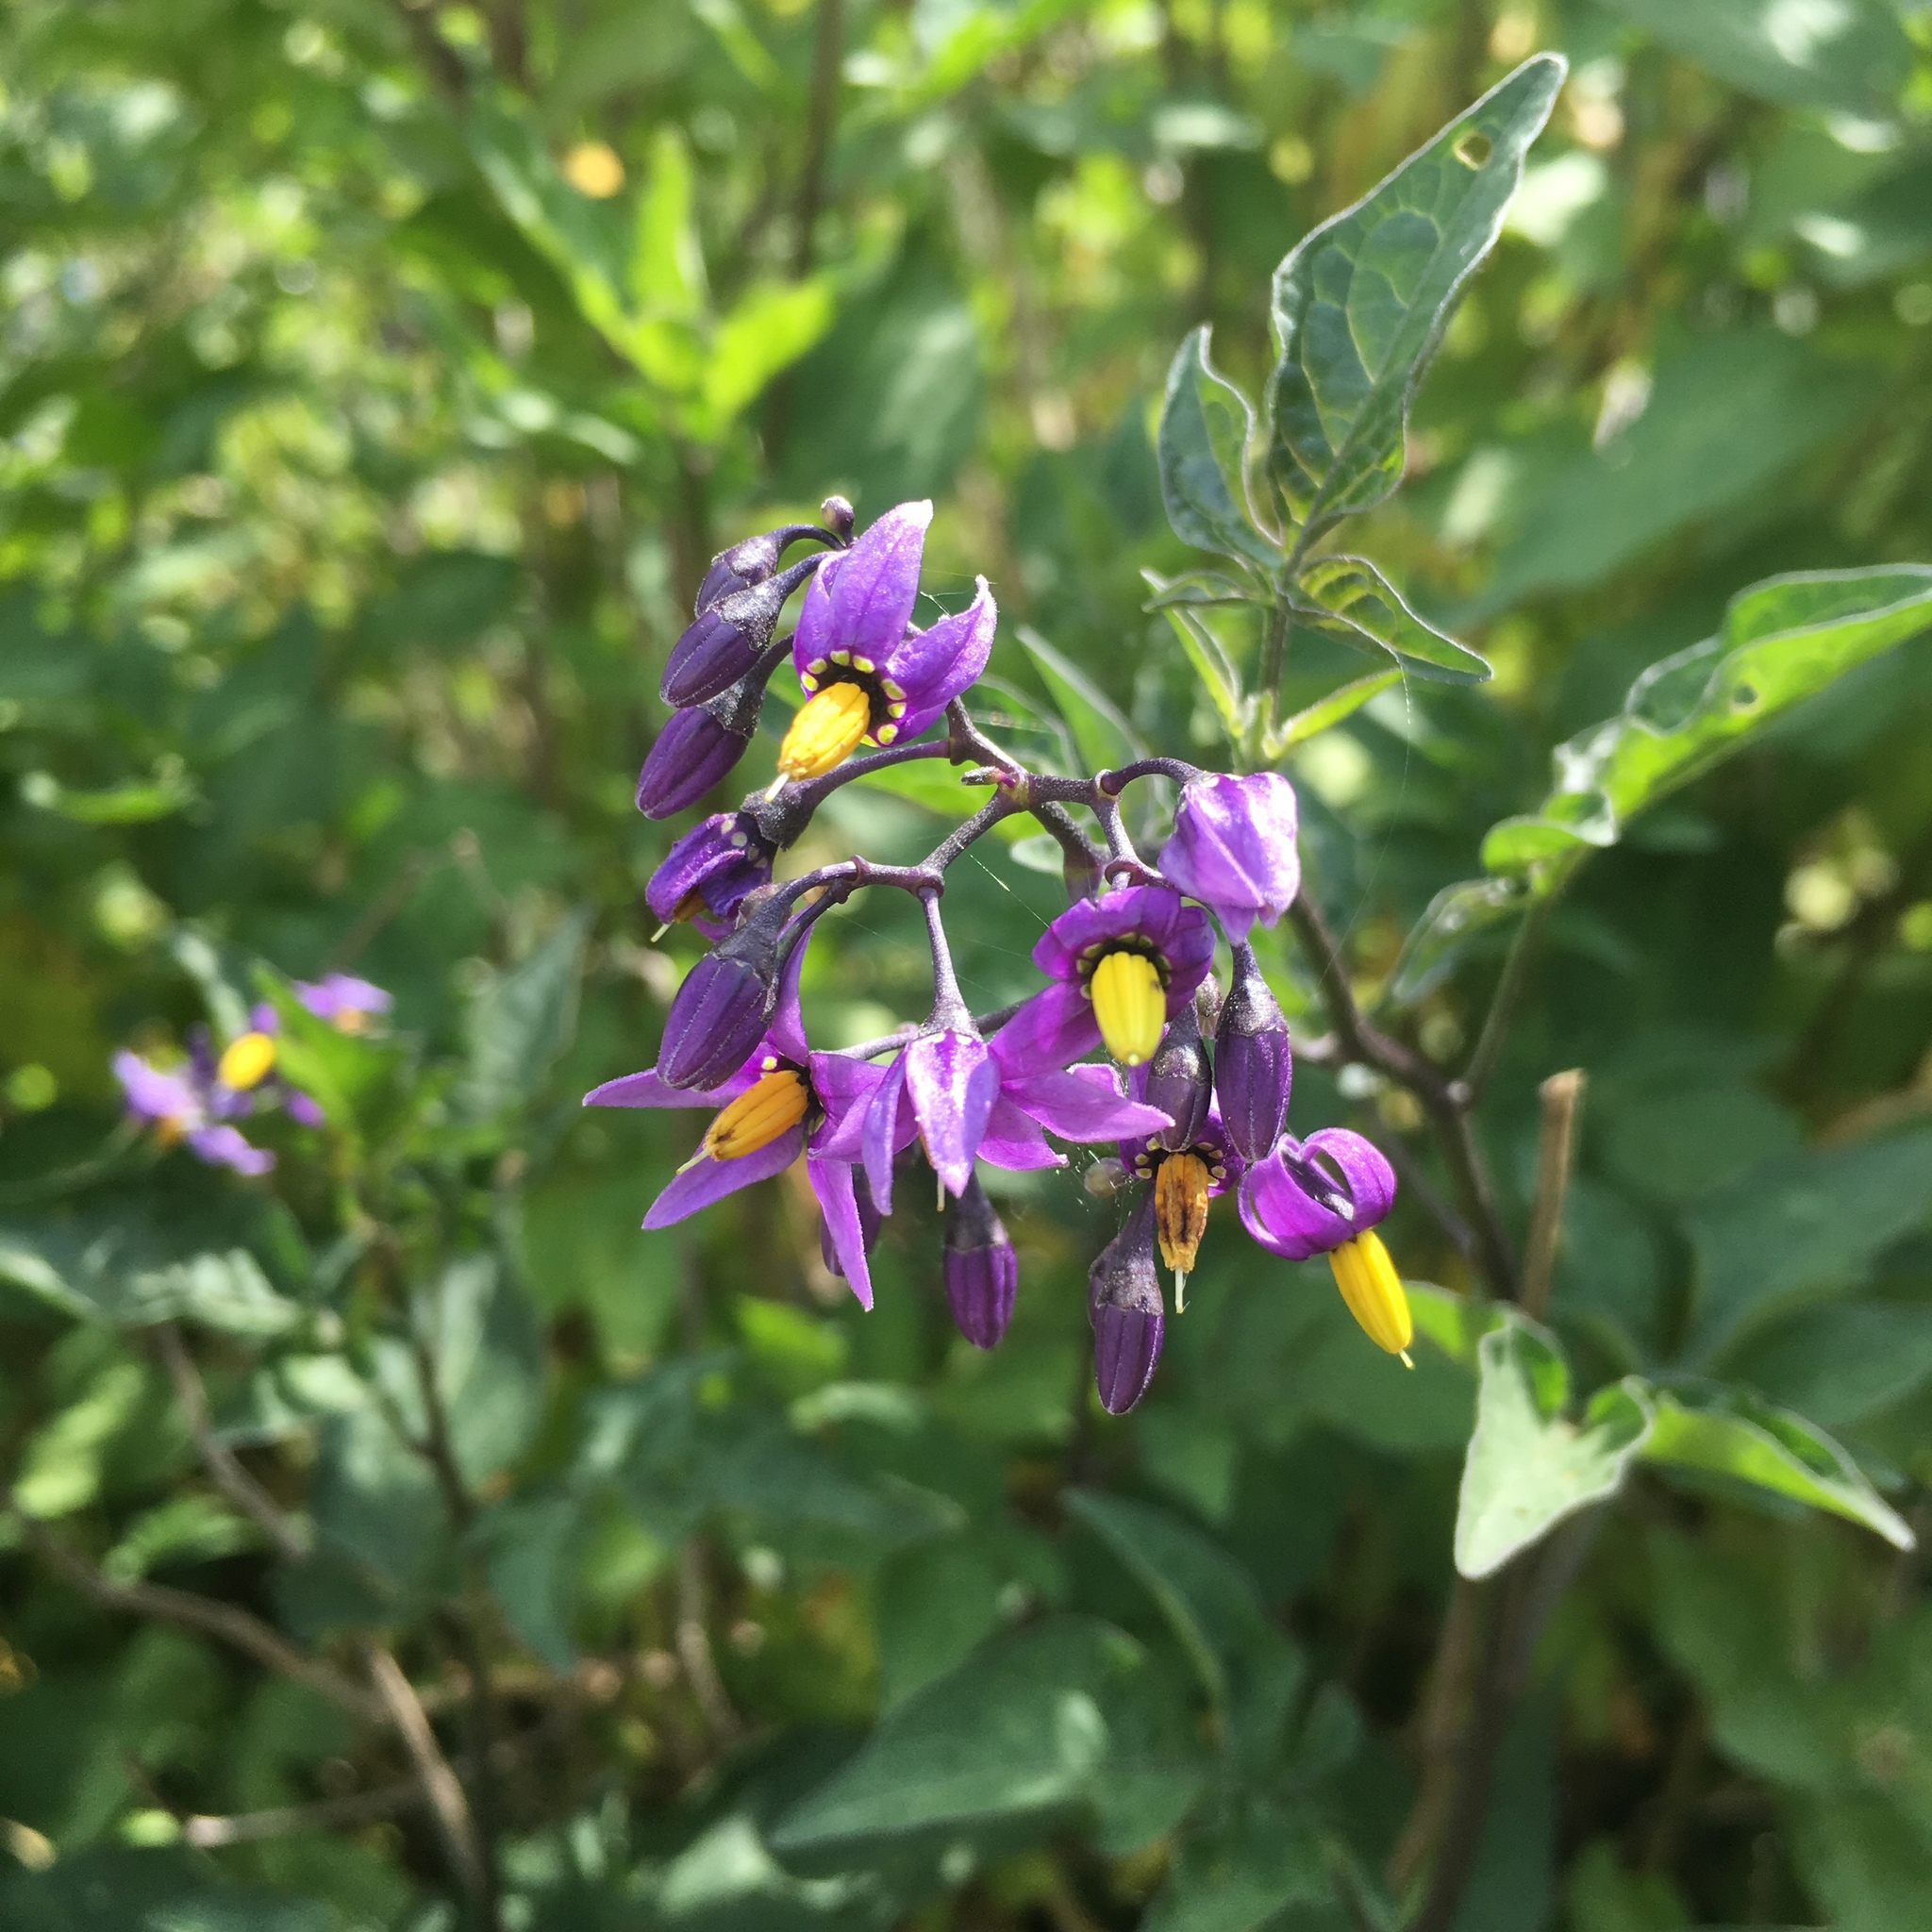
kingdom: Plantae
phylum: Tracheophyta
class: Magnoliopsida
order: Solanales
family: Solanaceae
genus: Solanum
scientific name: Solanum dulcamara
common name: Climbing nightshade
